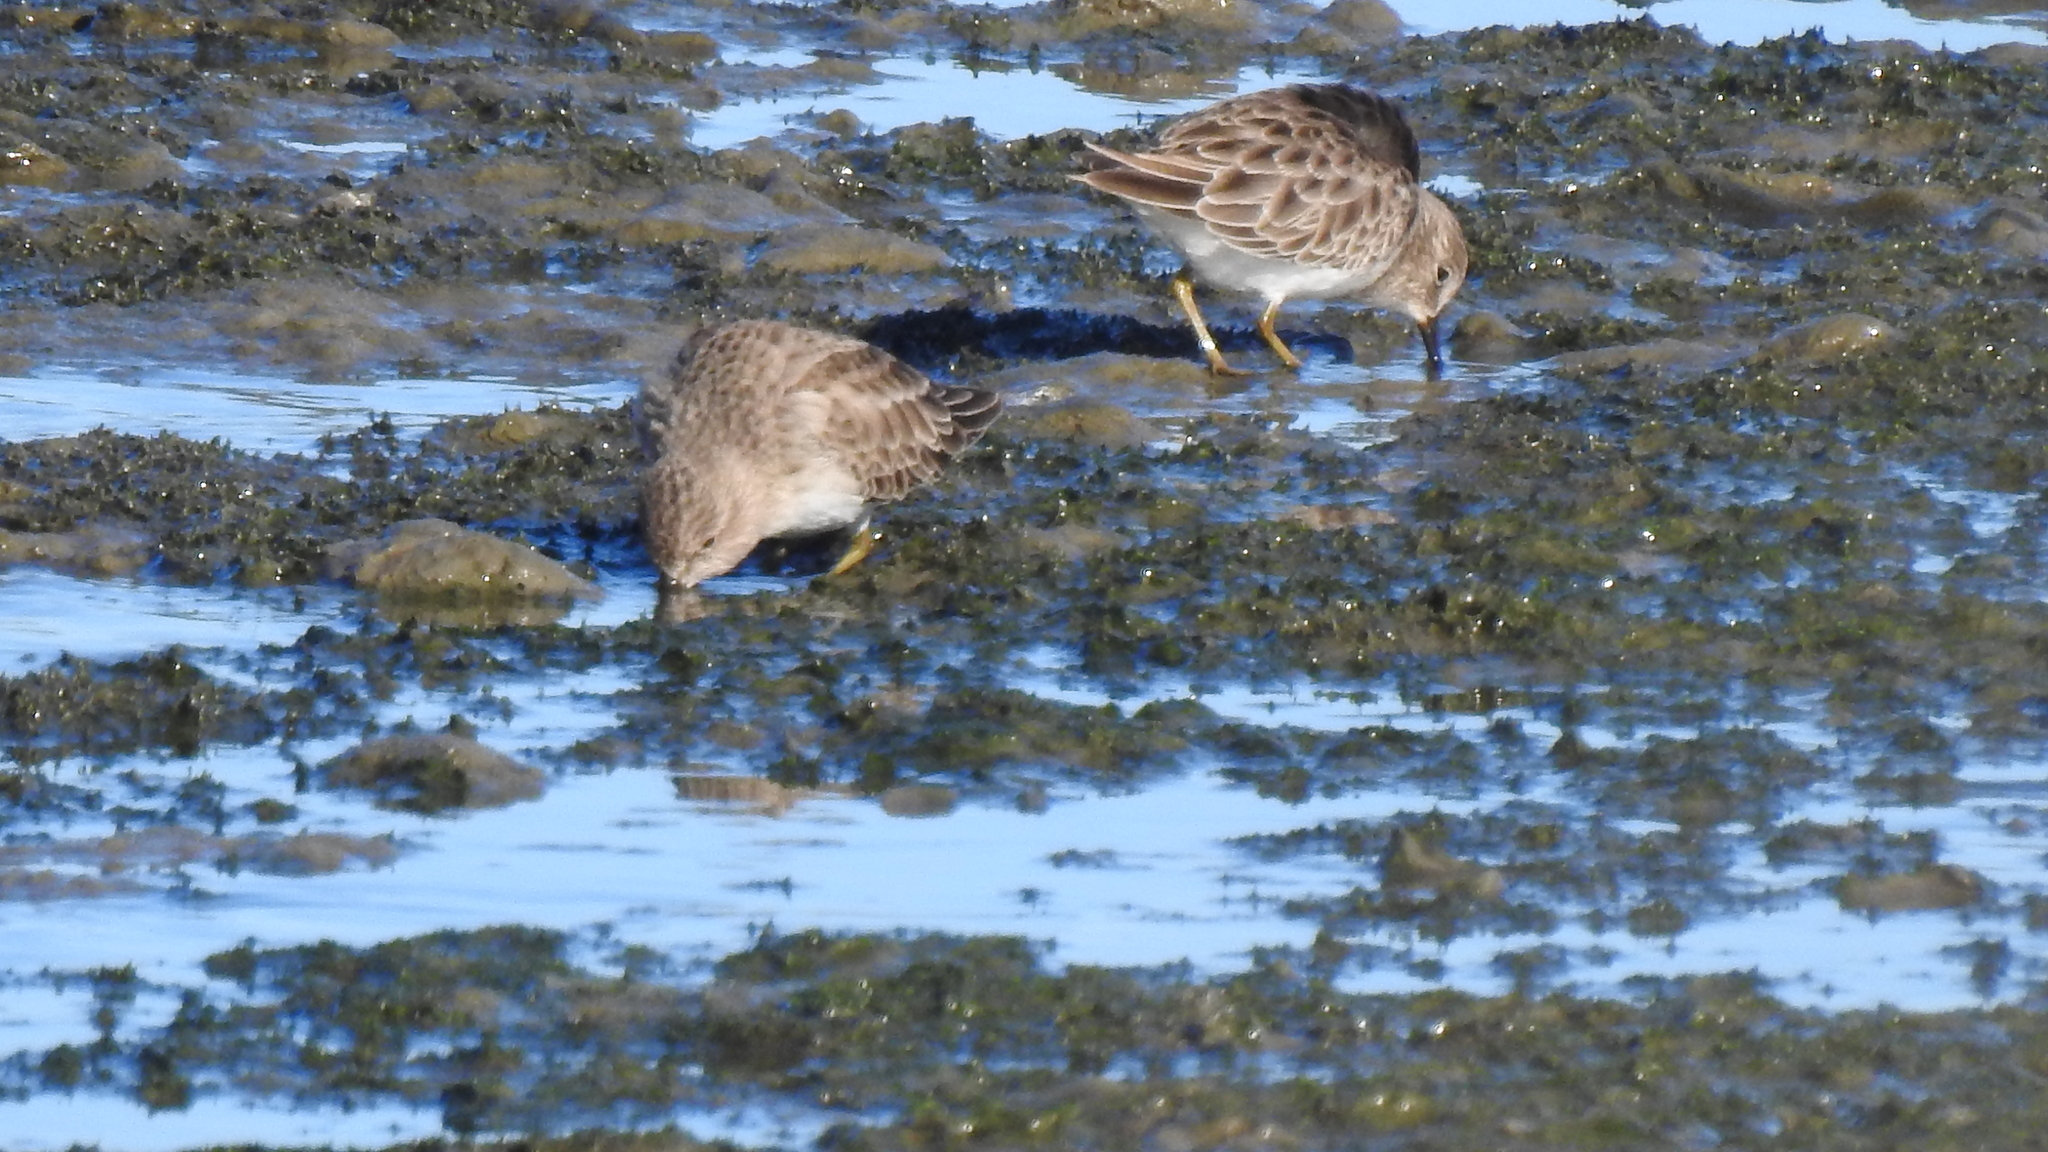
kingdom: Animalia
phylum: Chordata
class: Aves
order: Charadriiformes
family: Scolopacidae
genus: Calidris
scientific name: Calidris minutilla
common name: Least sandpiper
